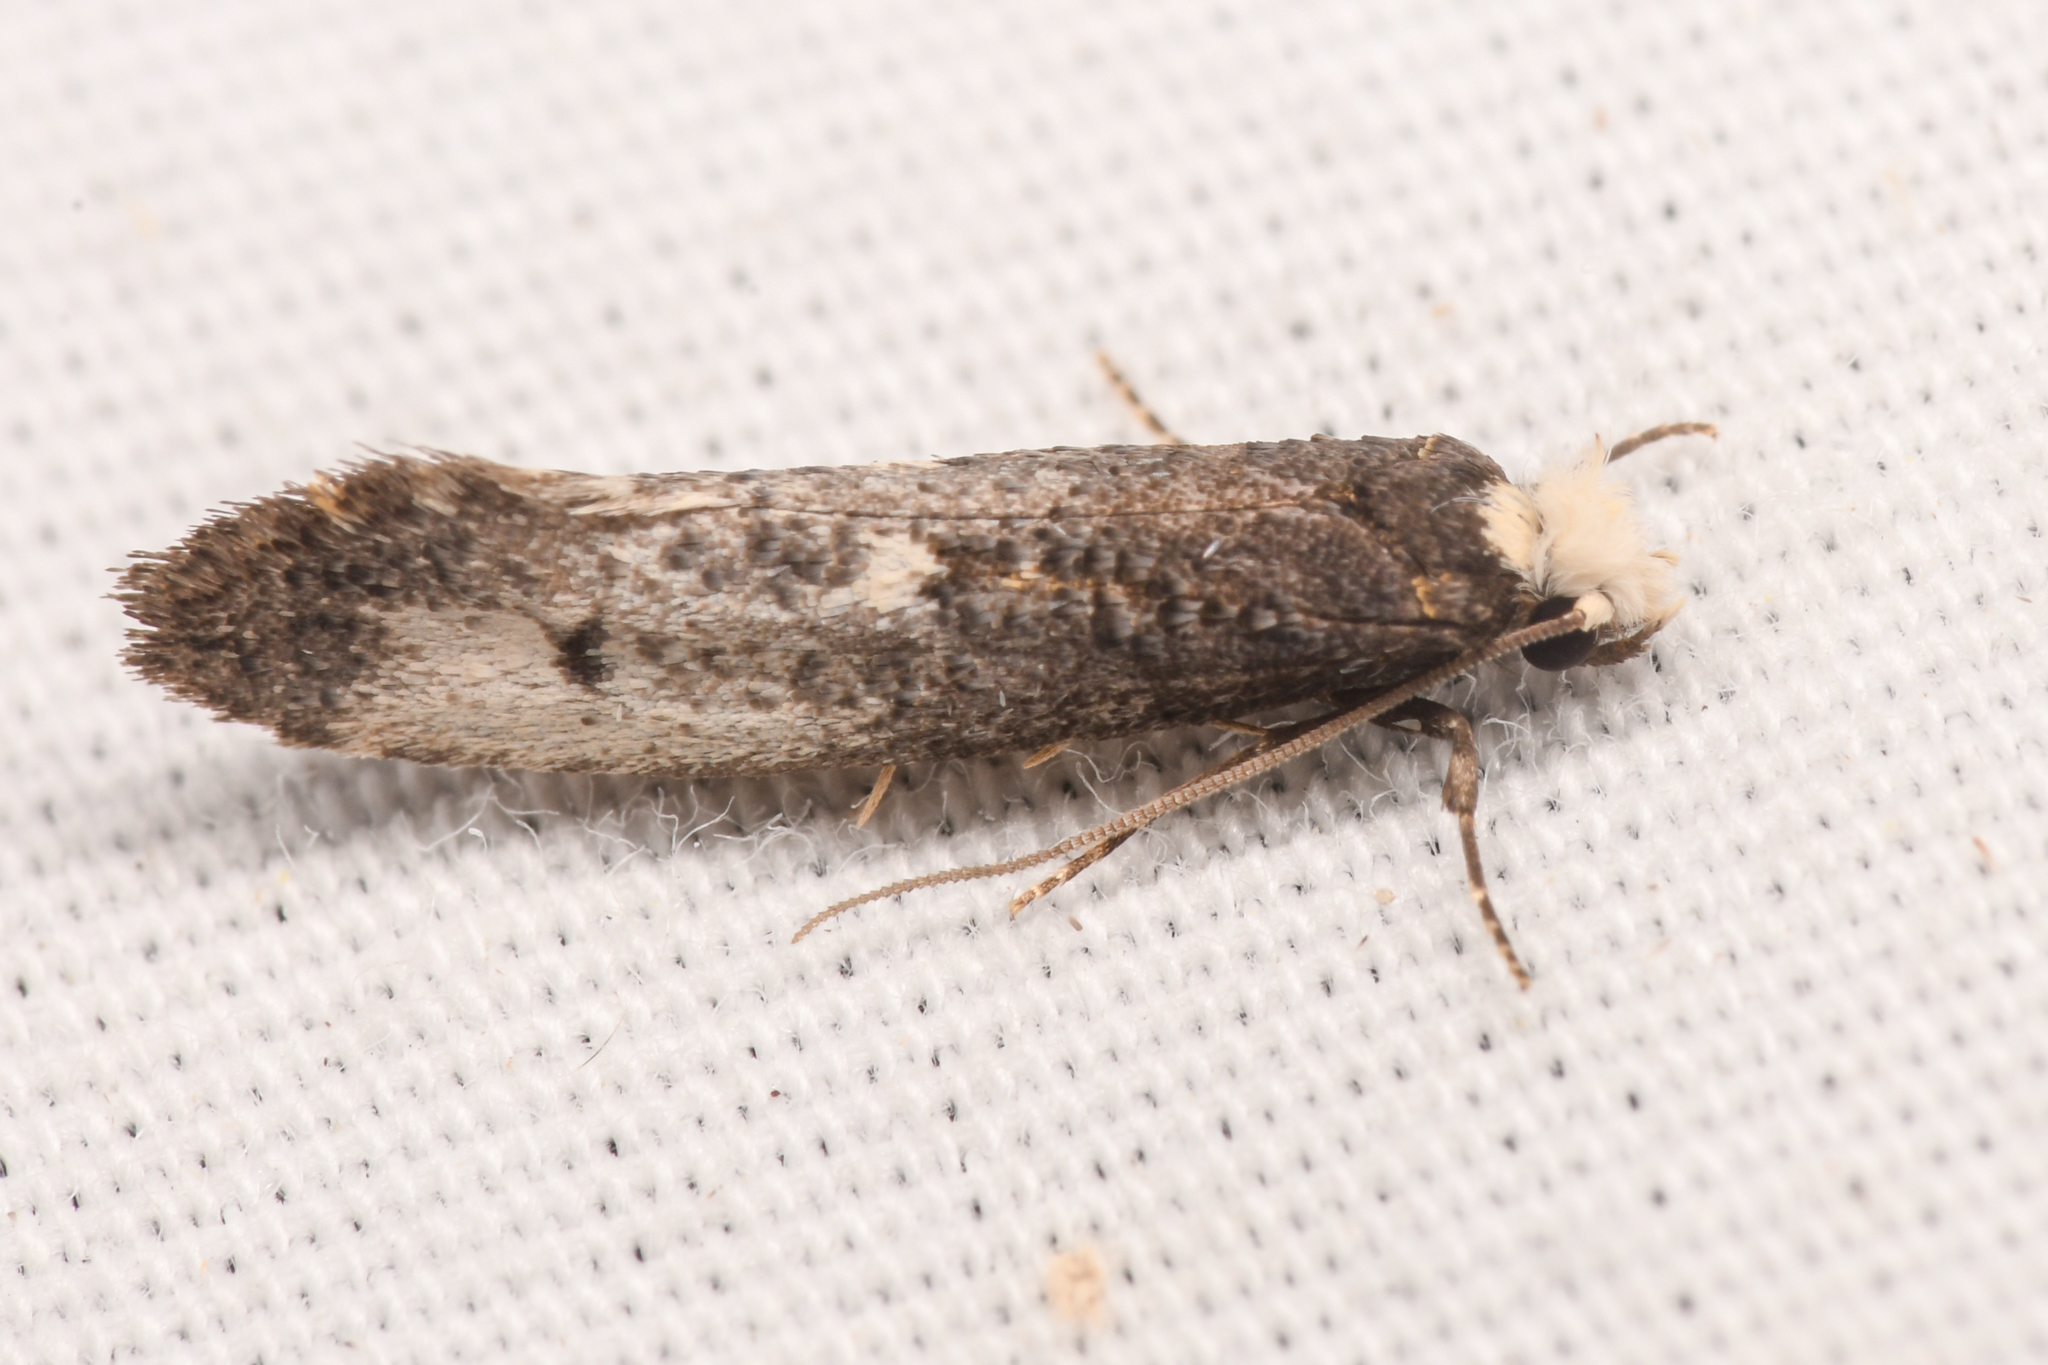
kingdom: Animalia
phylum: Arthropoda
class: Insecta
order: Lepidoptera
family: Tineidae
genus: Tinea
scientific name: Tinea occidentella
